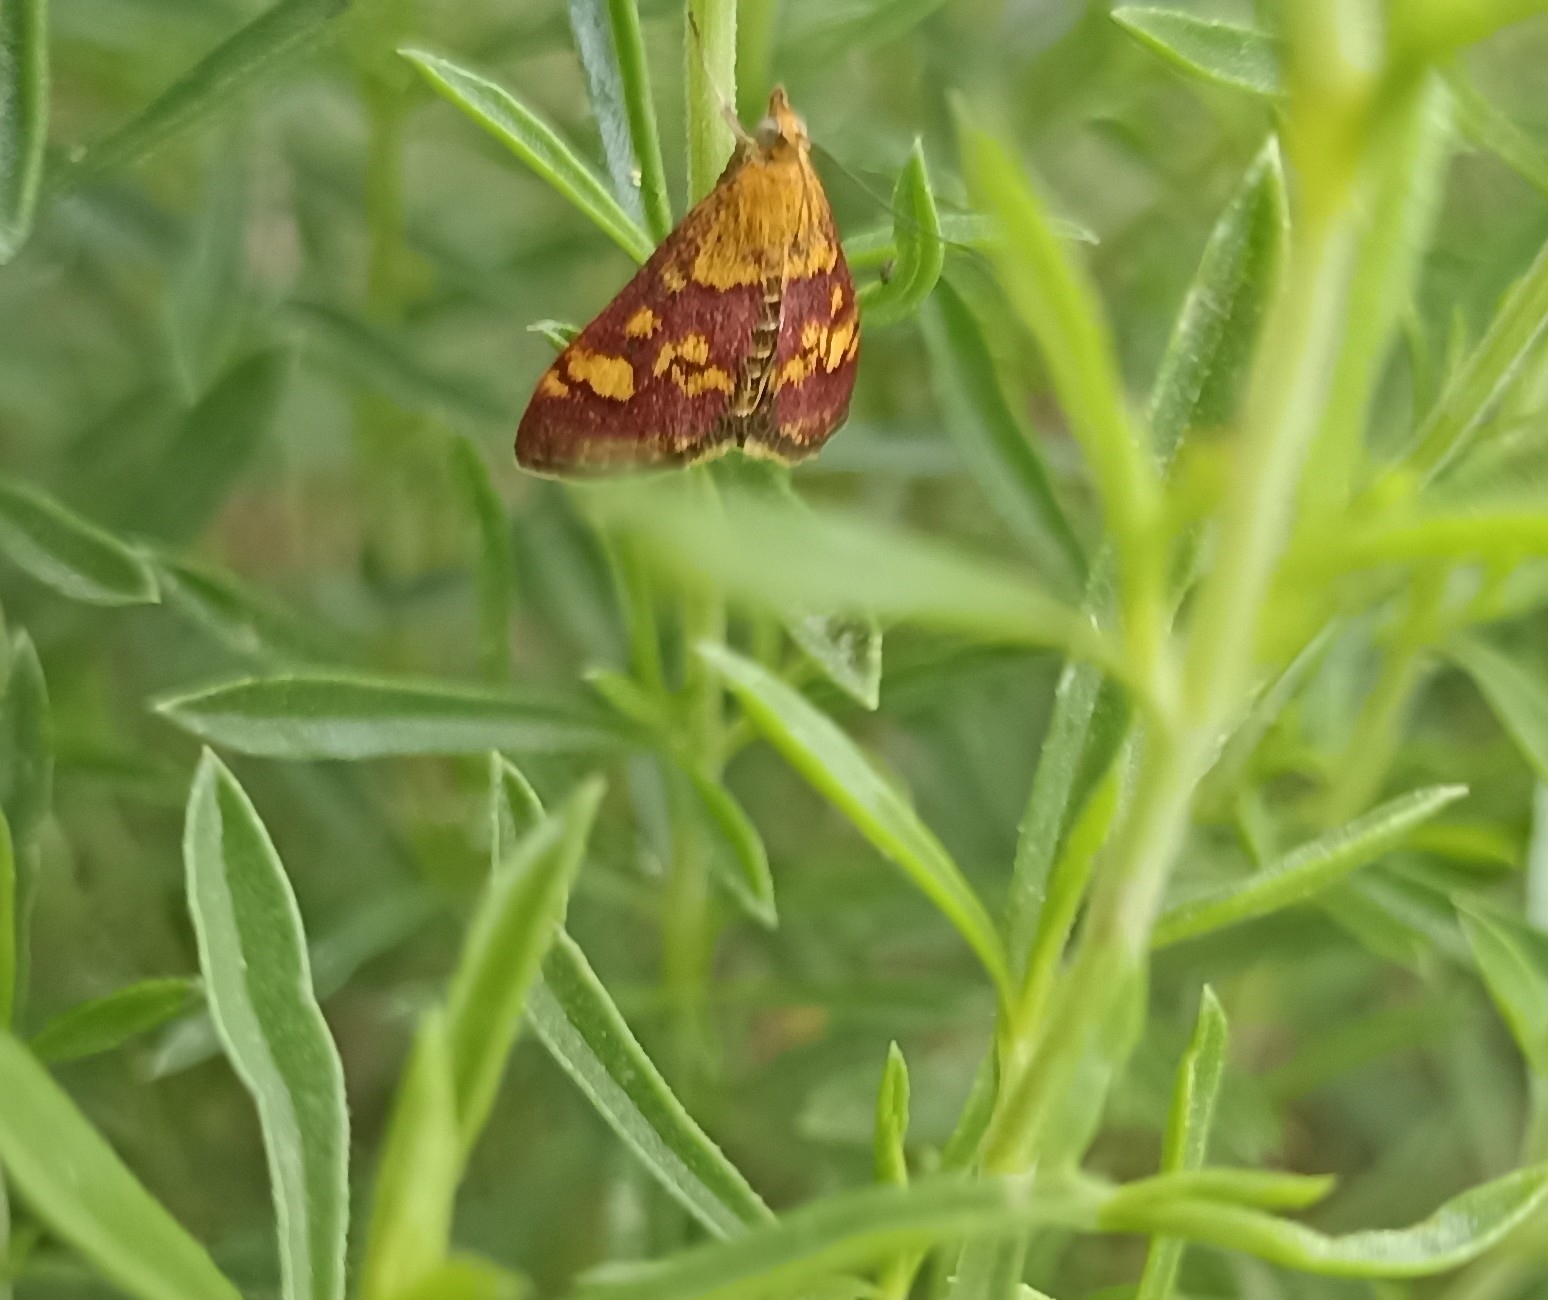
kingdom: Animalia
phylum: Arthropoda
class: Insecta
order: Lepidoptera
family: Crambidae
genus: Pyrausta
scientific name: Pyrausta aurata
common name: Small purple & gold
